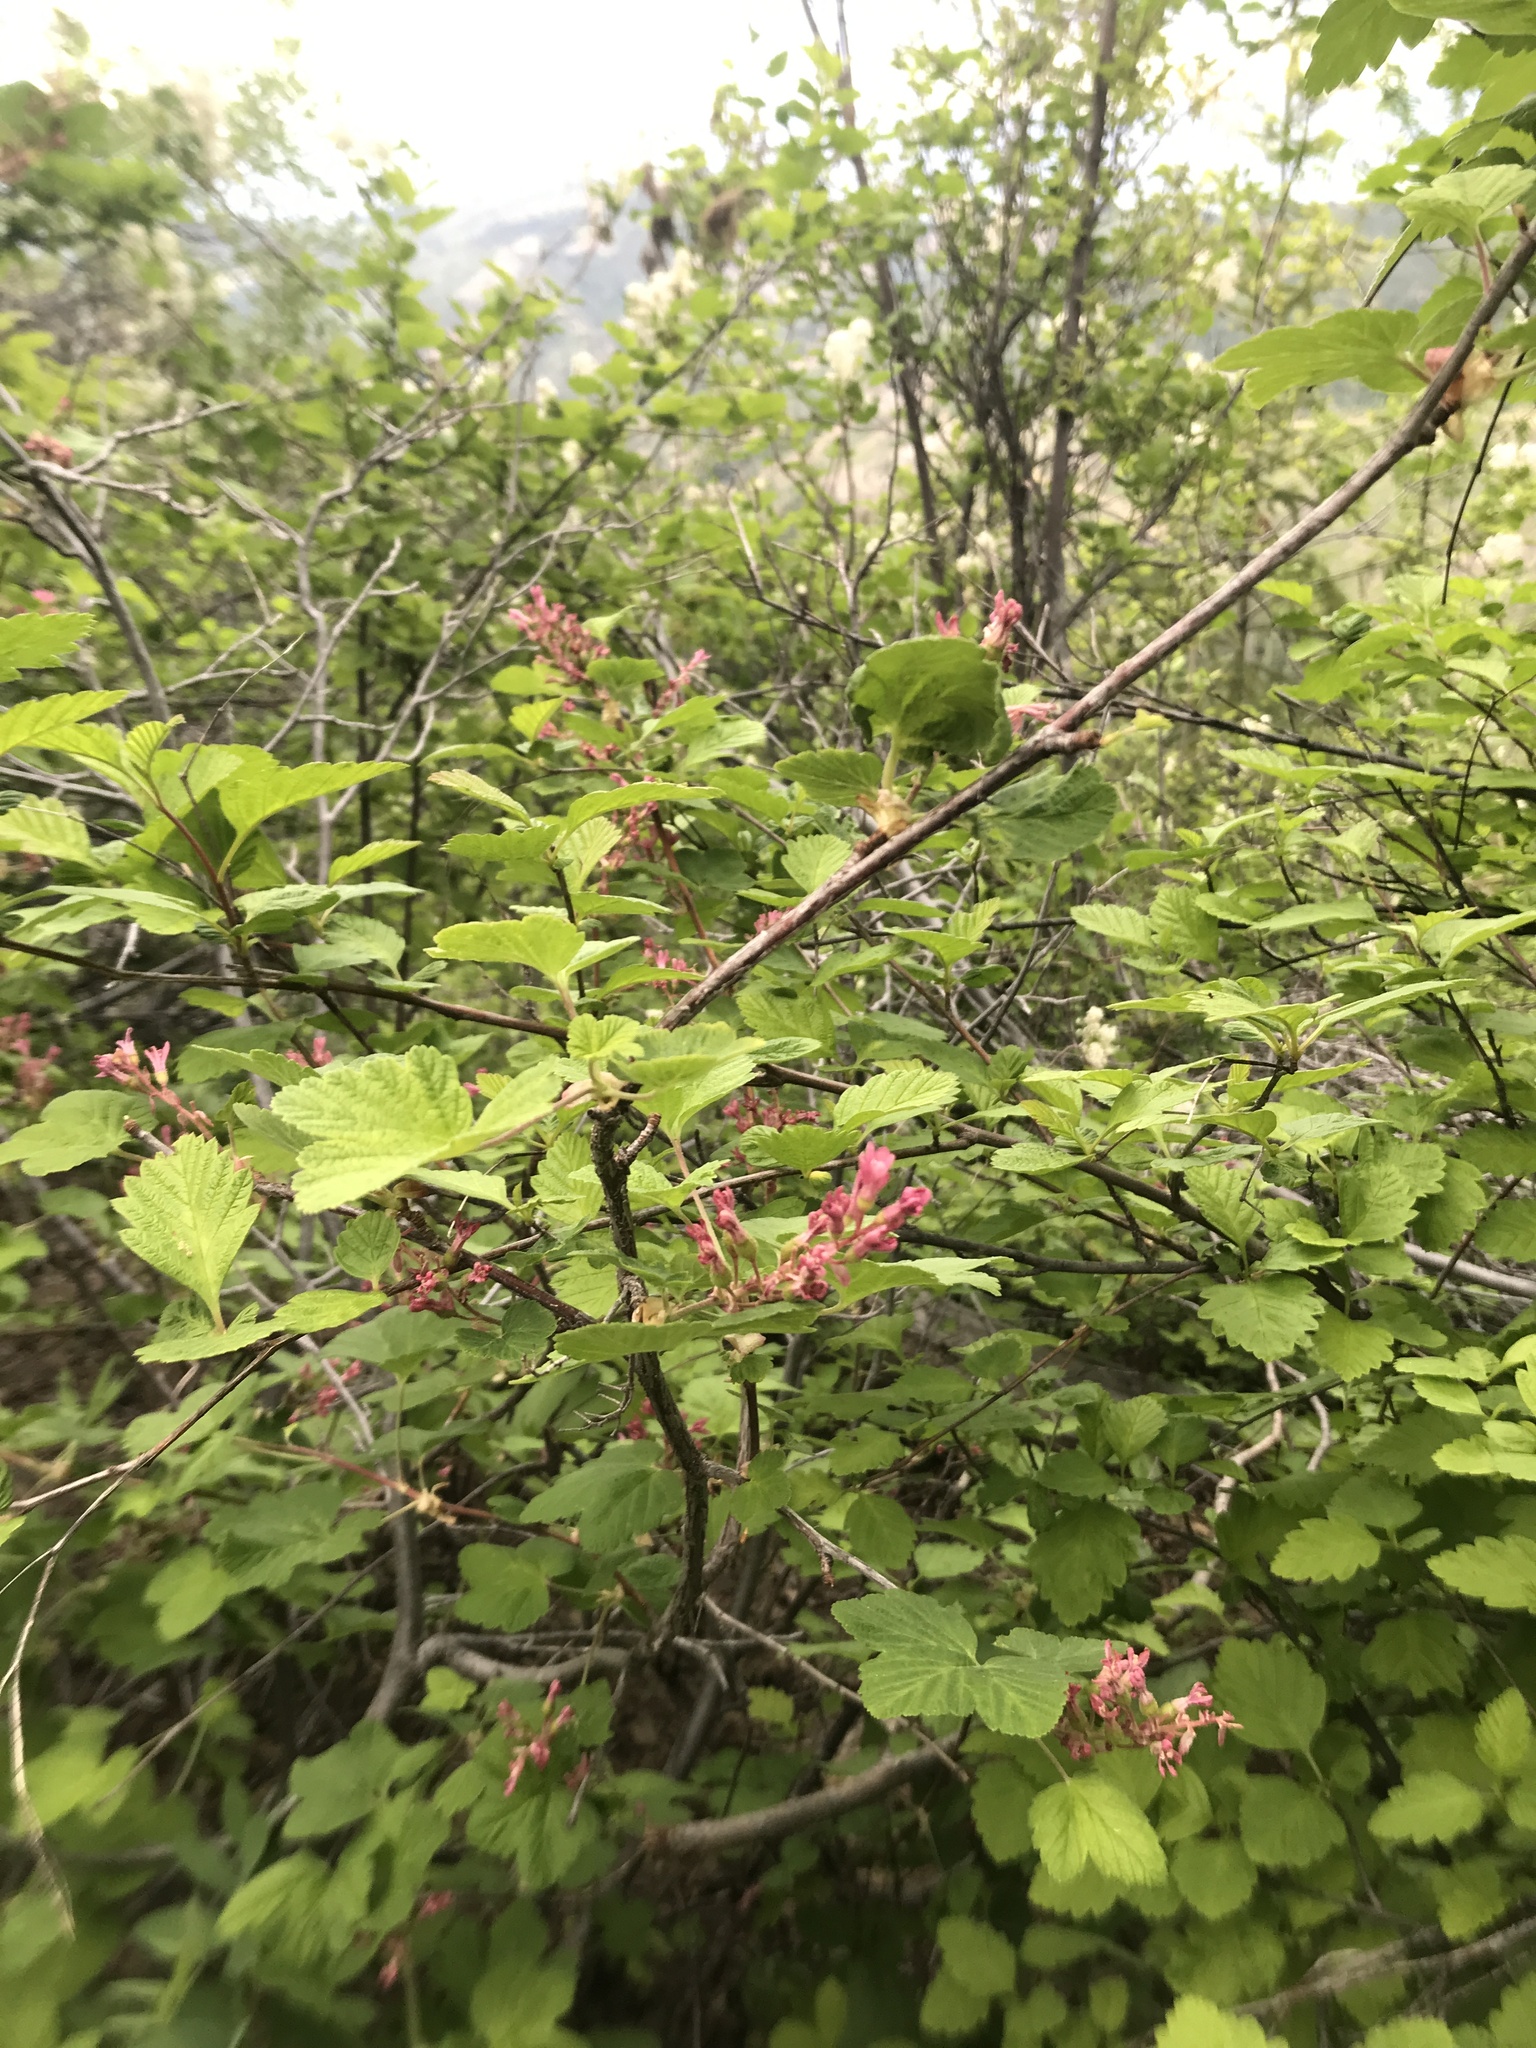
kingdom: Plantae
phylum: Tracheophyta
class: Magnoliopsida
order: Saxifragales
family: Grossulariaceae
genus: Ribes
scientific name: Ribes sanguineum
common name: Flowering currant
